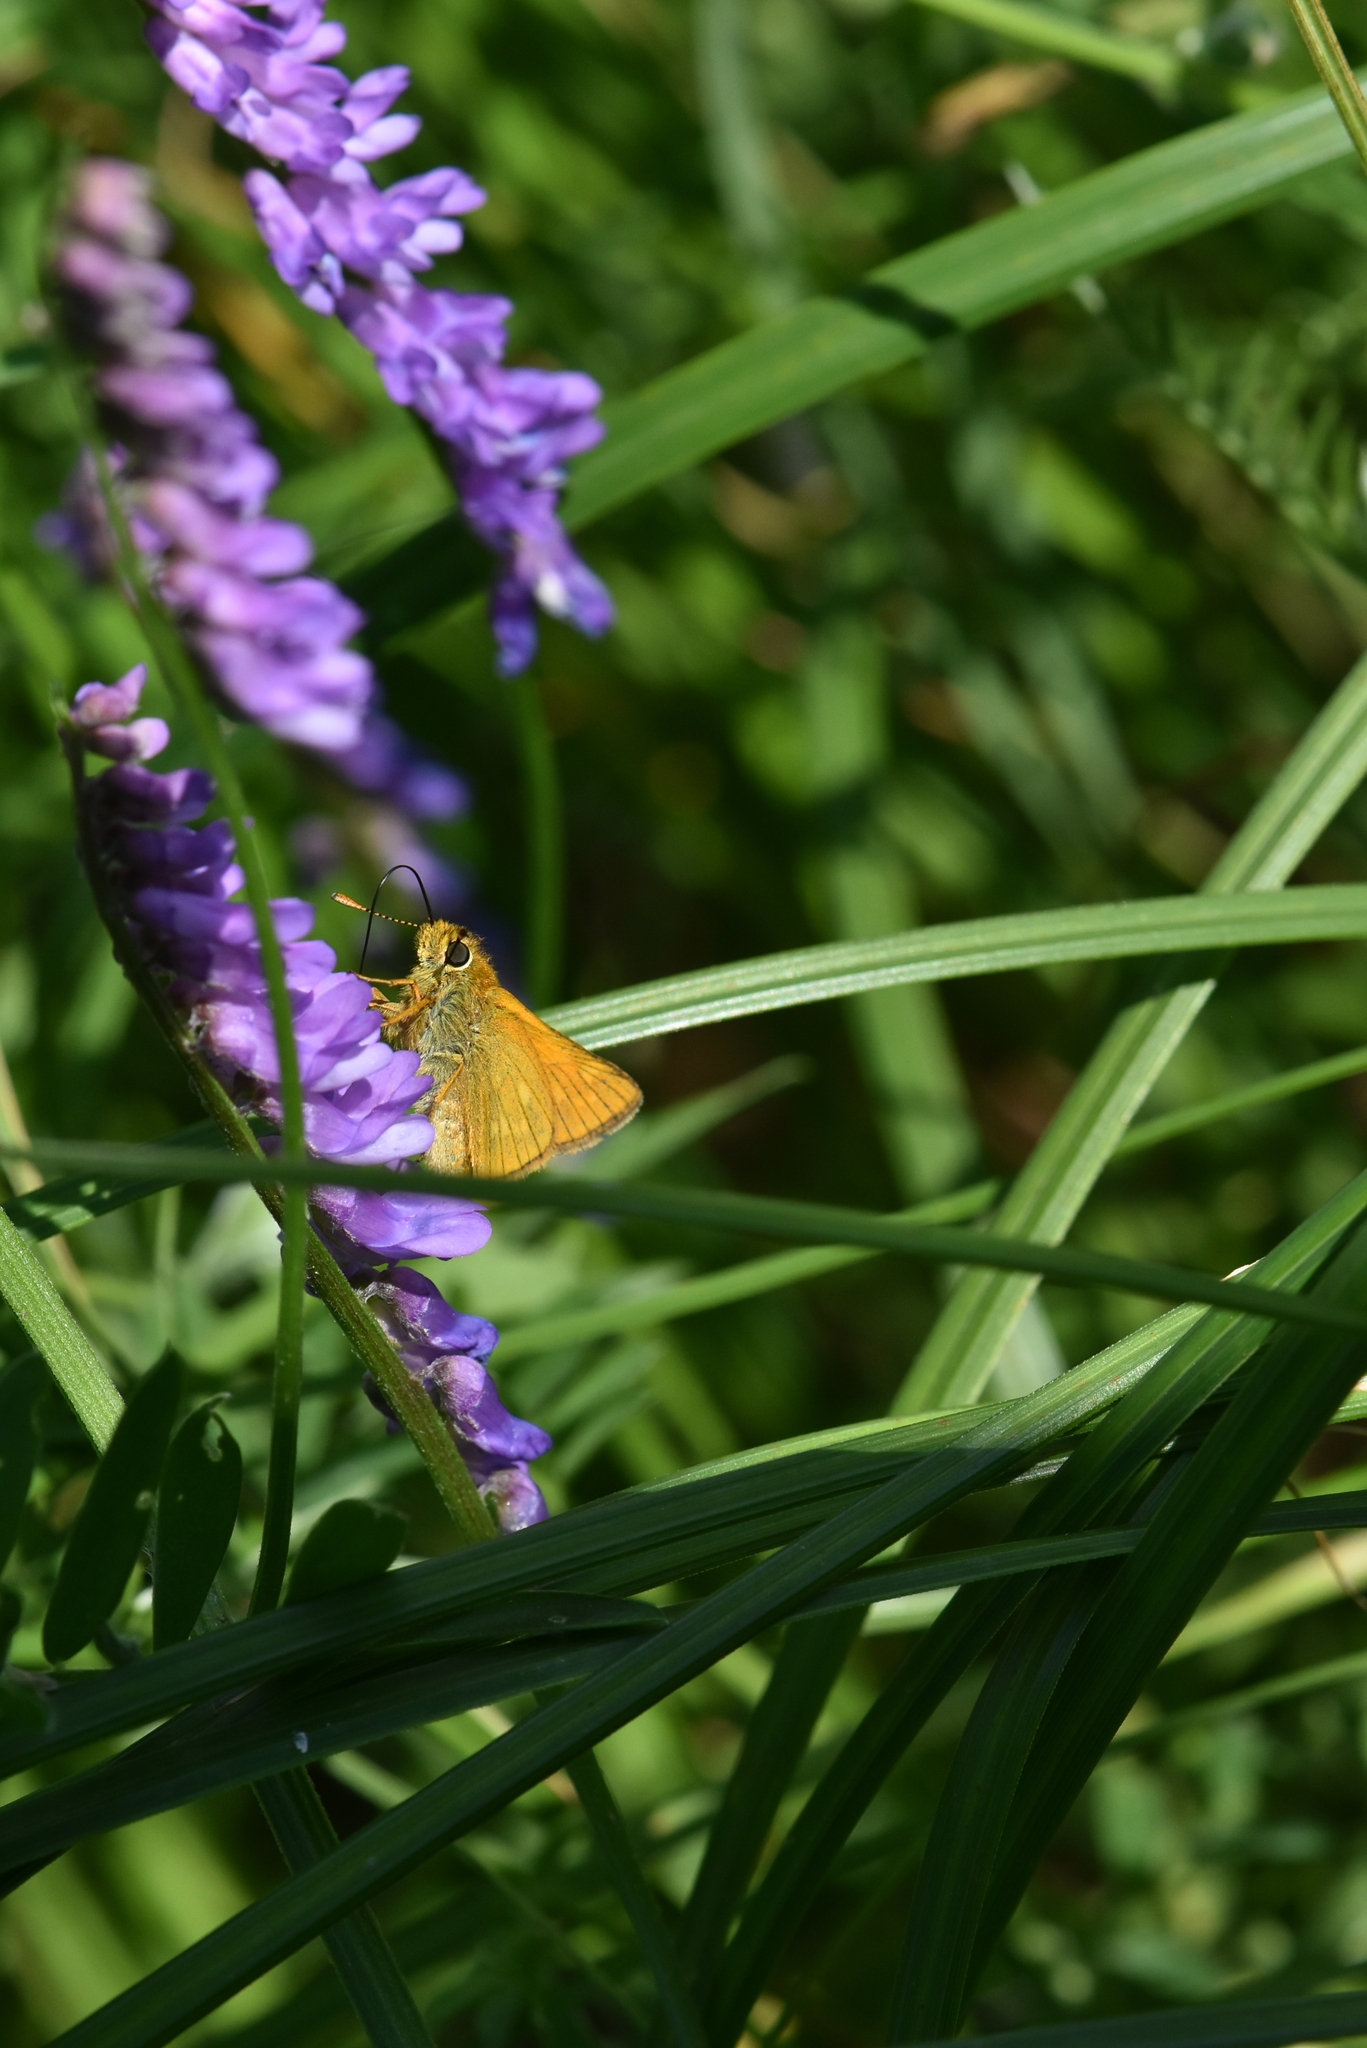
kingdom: Animalia
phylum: Arthropoda
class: Insecta
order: Lepidoptera
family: Hesperiidae
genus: Ochlodes
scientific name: Ochlodes venata
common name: Large skipper
